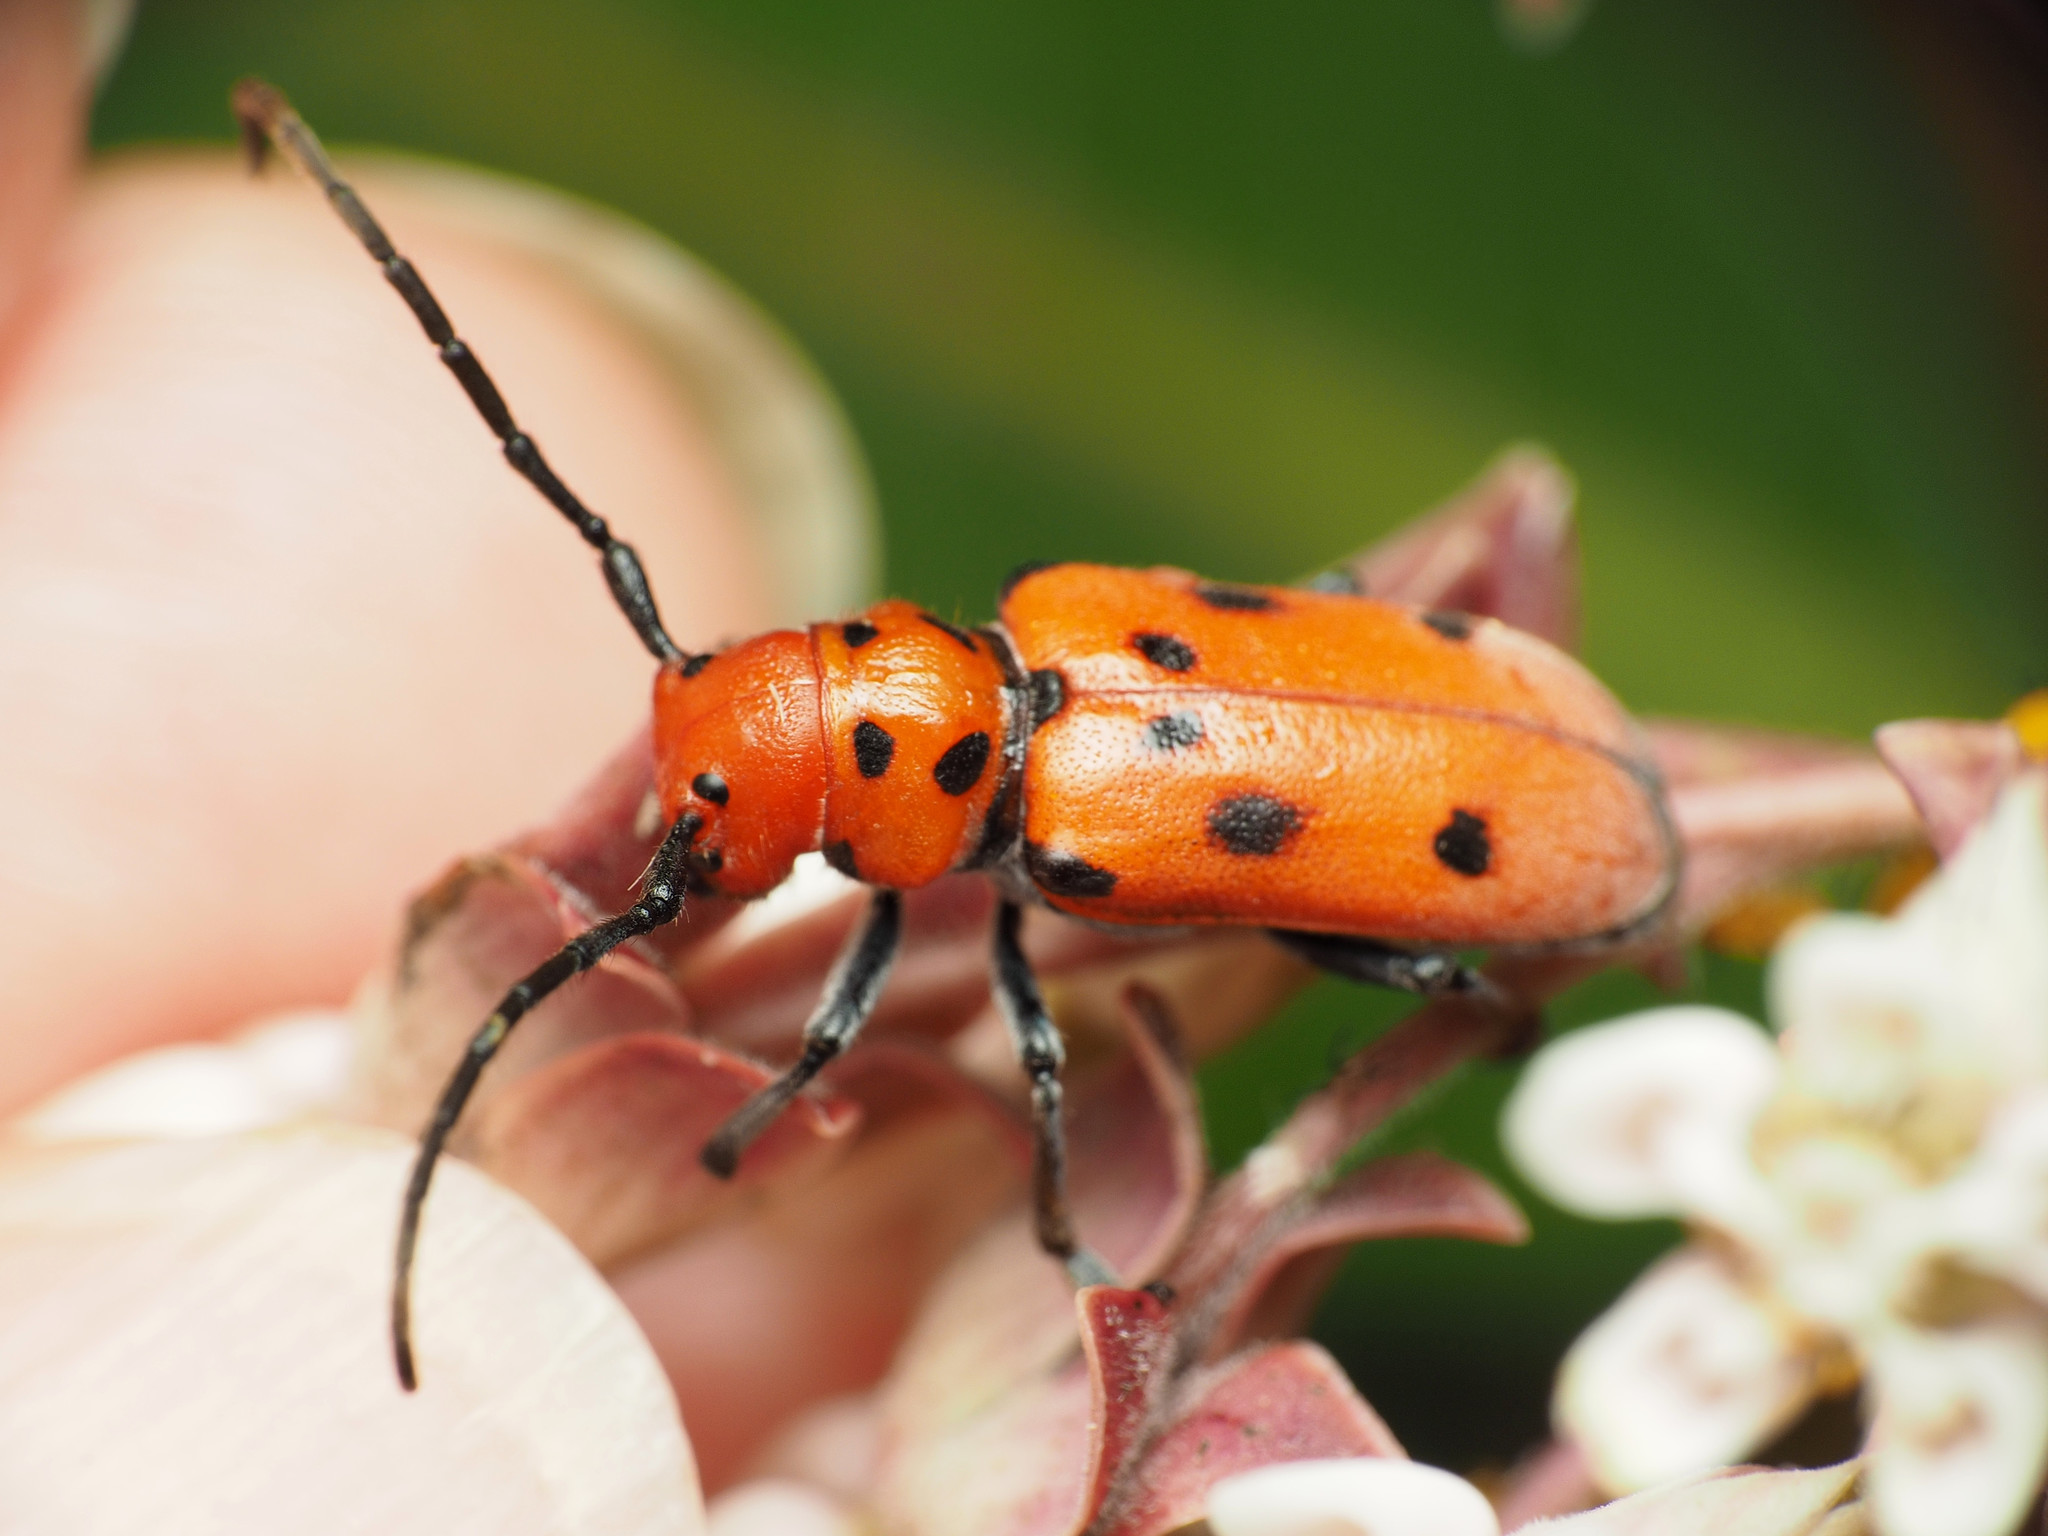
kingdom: Animalia
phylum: Arthropoda
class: Insecta
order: Coleoptera
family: Cerambycidae
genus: Tetraopes
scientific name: Tetraopes tetrophthalmus
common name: Red milkweed beetle
